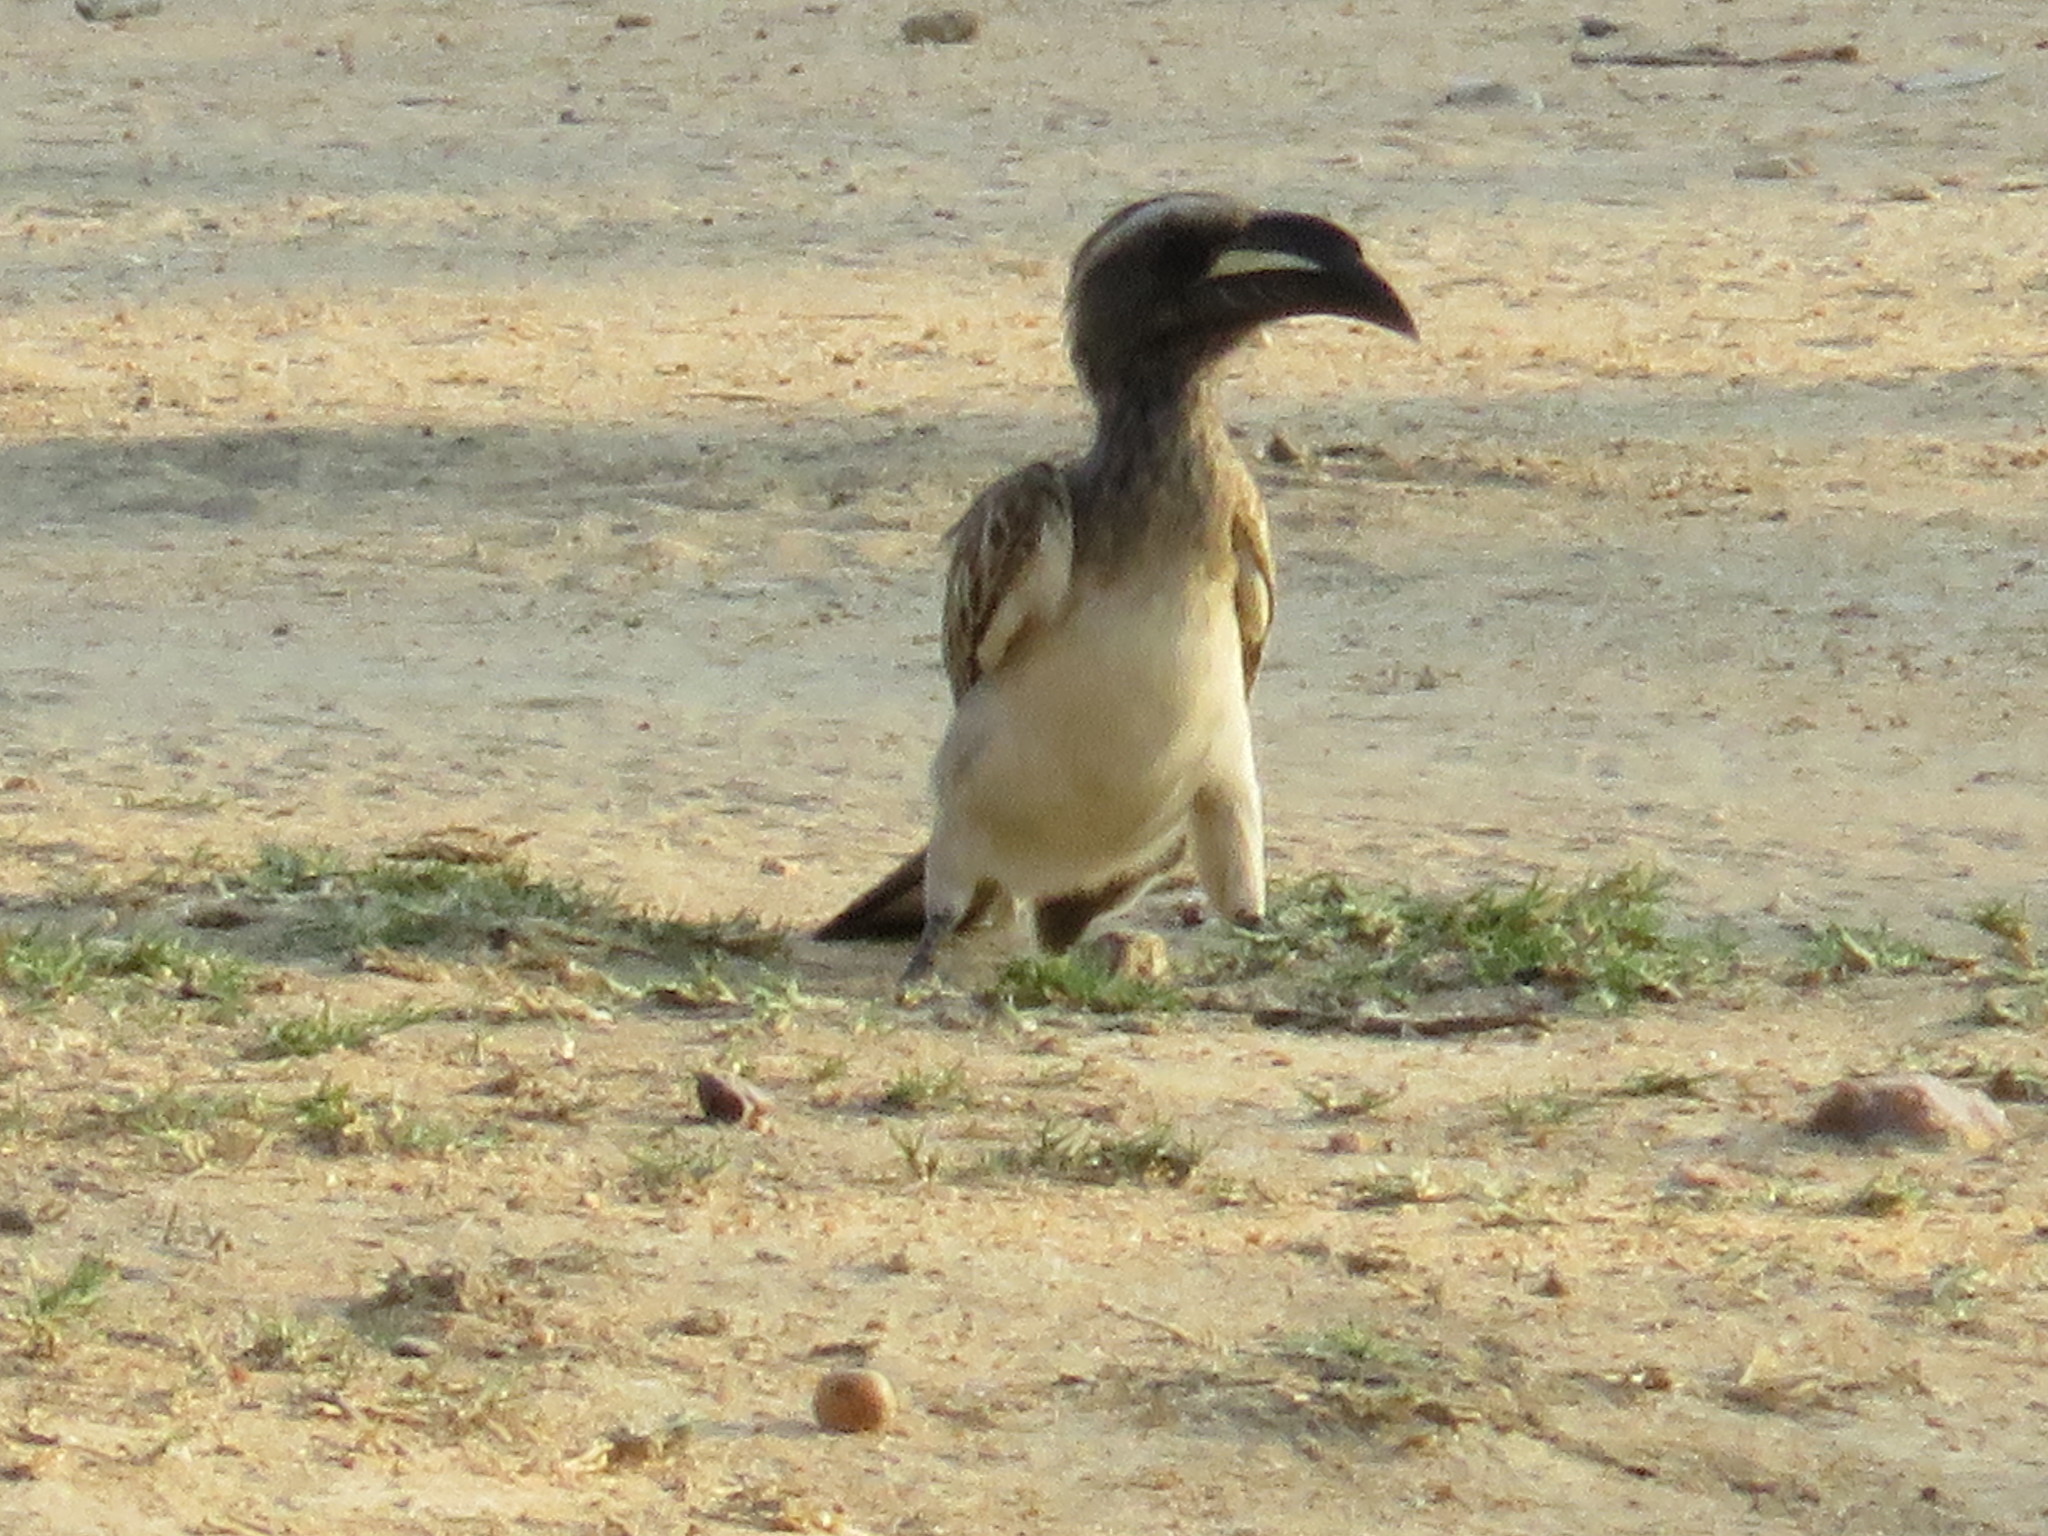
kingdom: Animalia
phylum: Chordata
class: Aves
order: Bucerotiformes
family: Bucerotidae
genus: Lophoceros
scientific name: Lophoceros nasutus
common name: African grey hornbill
